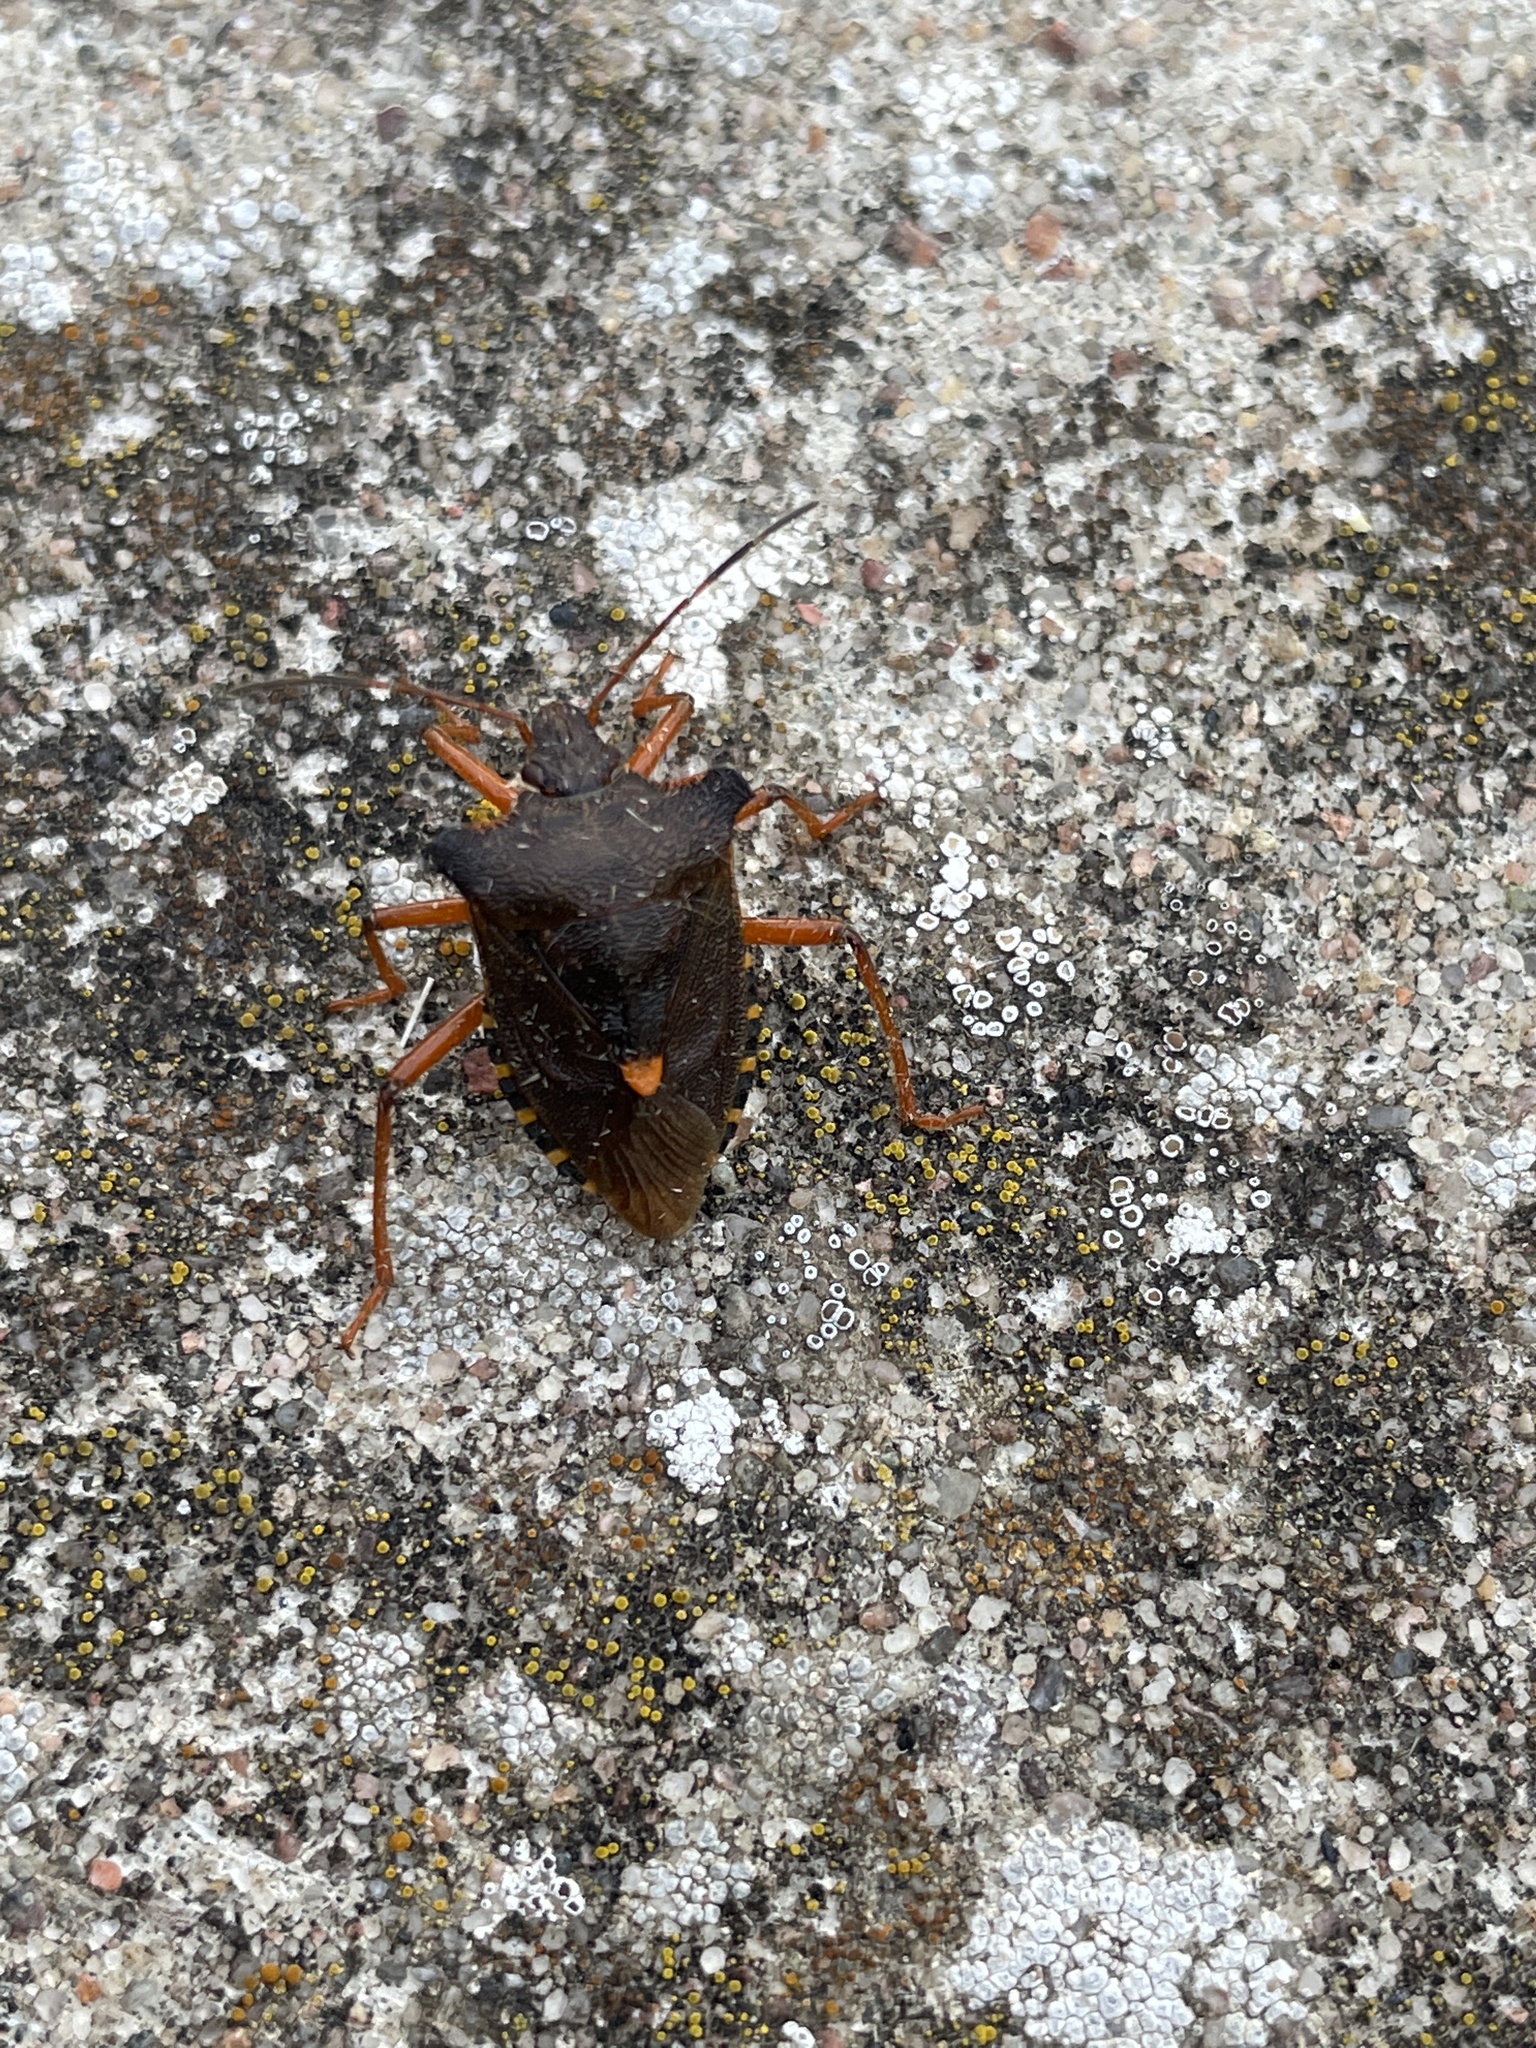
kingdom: Animalia
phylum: Arthropoda
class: Insecta
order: Hemiptera
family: Pentatomidae
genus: Pentatoma
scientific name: Pentatoma rufipes
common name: Forest bug
